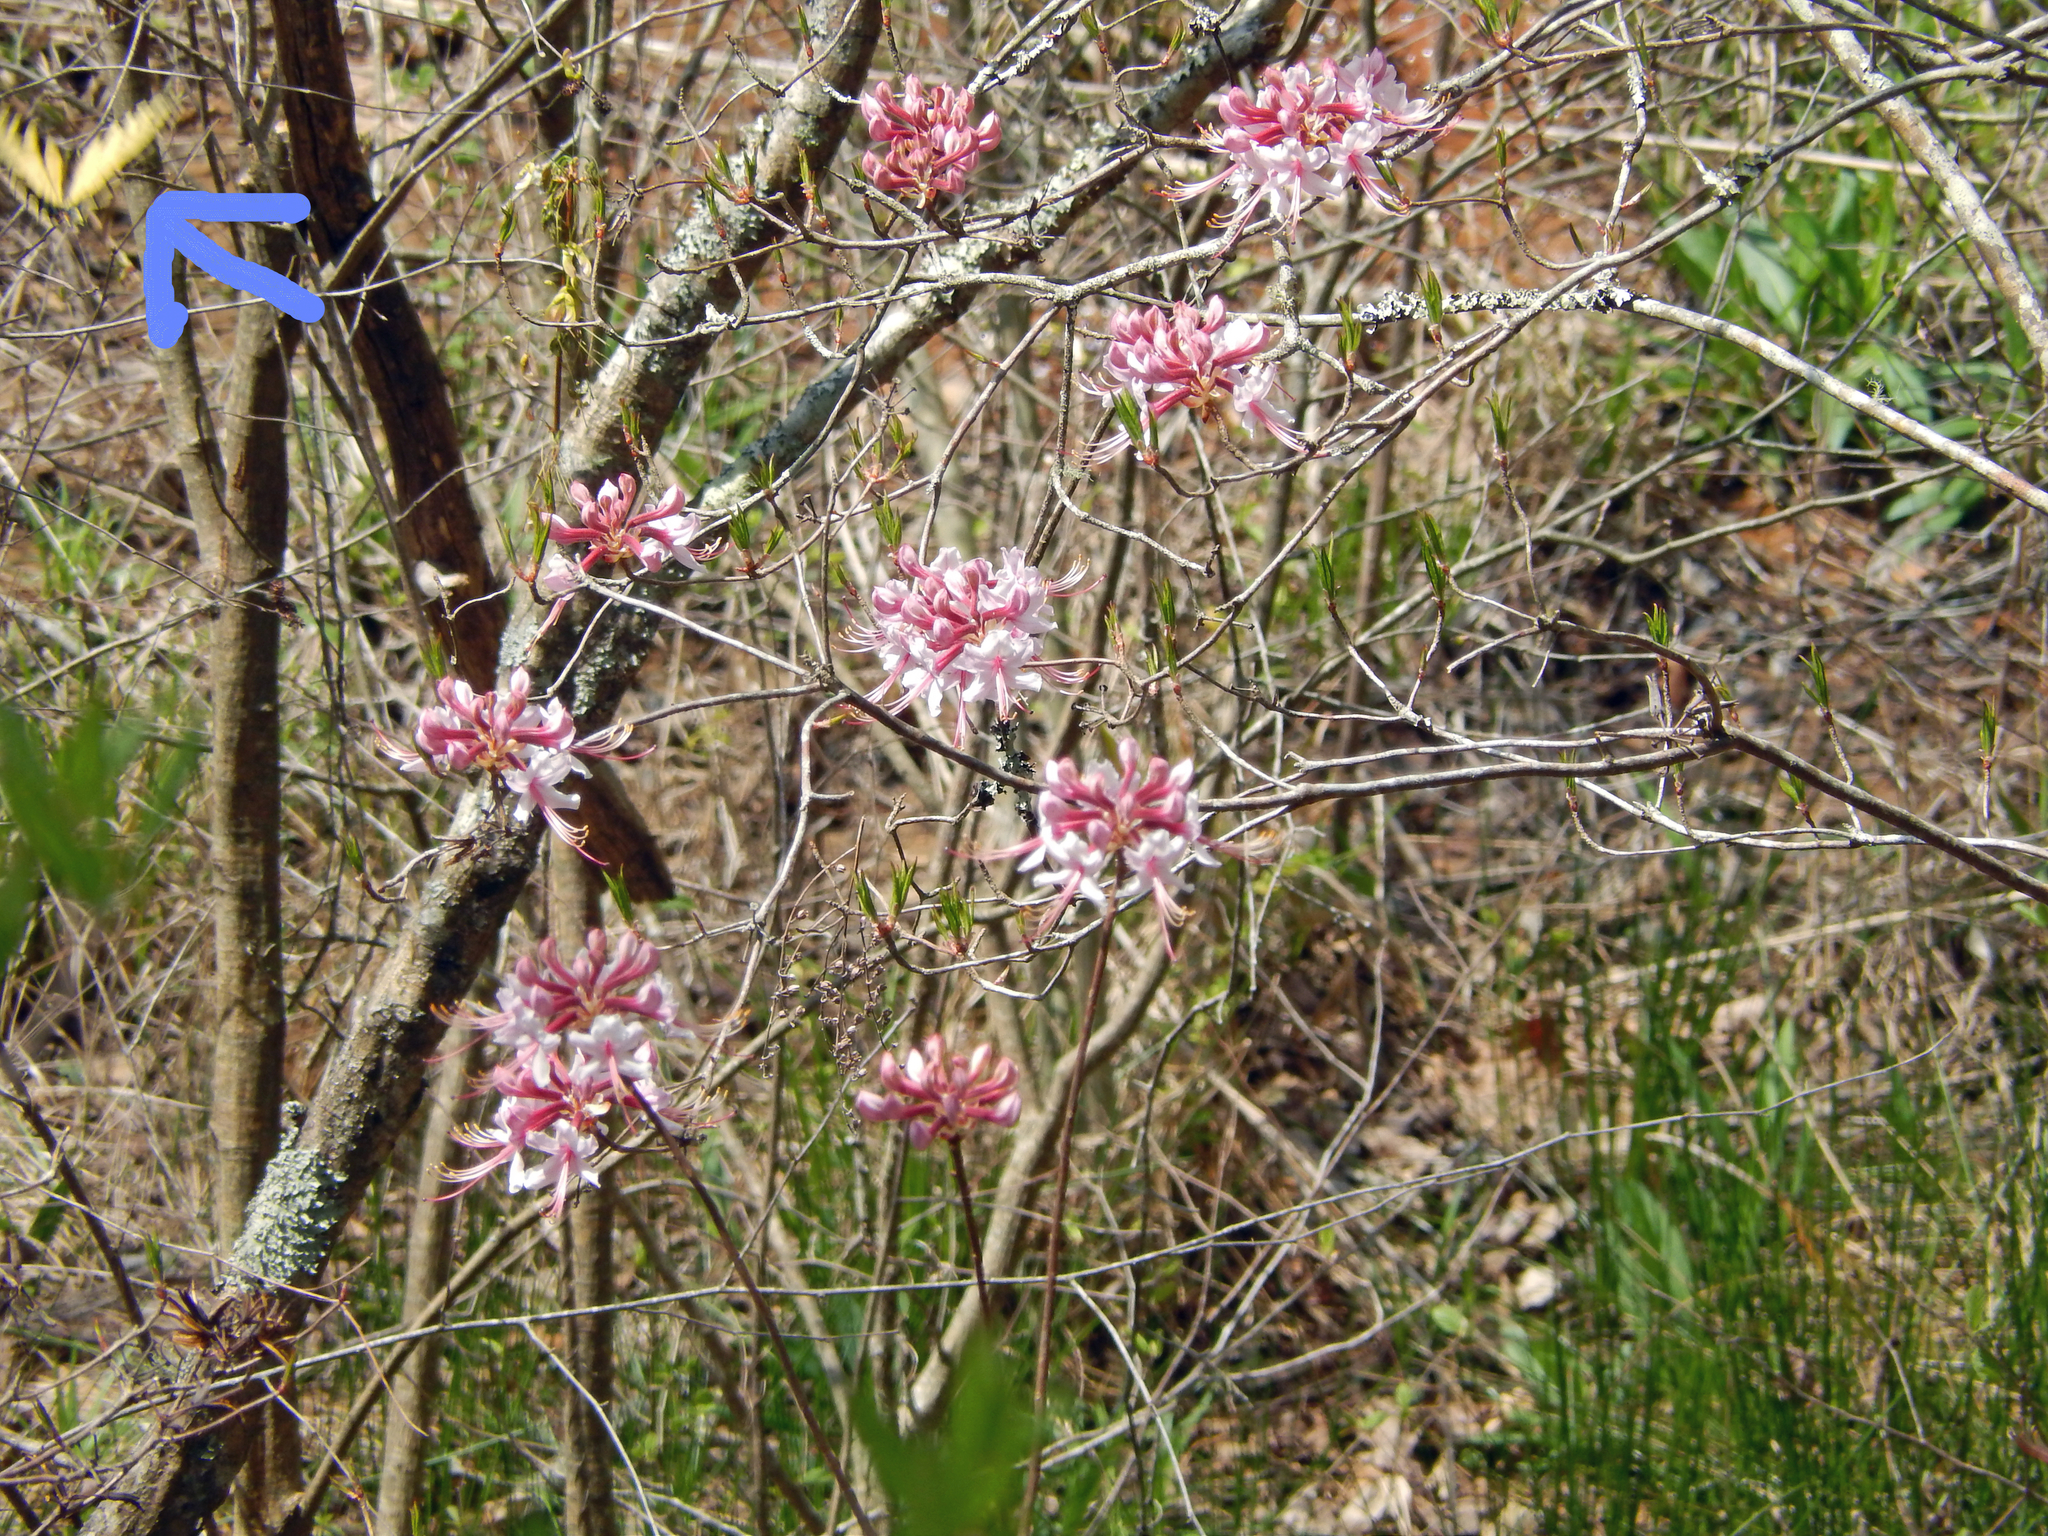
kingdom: Animalia
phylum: Arthropoda
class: Insecta
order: Lepidoptera
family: Papilionidae
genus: Papilio
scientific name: Papilio glaucus
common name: Tiger swallowtail
